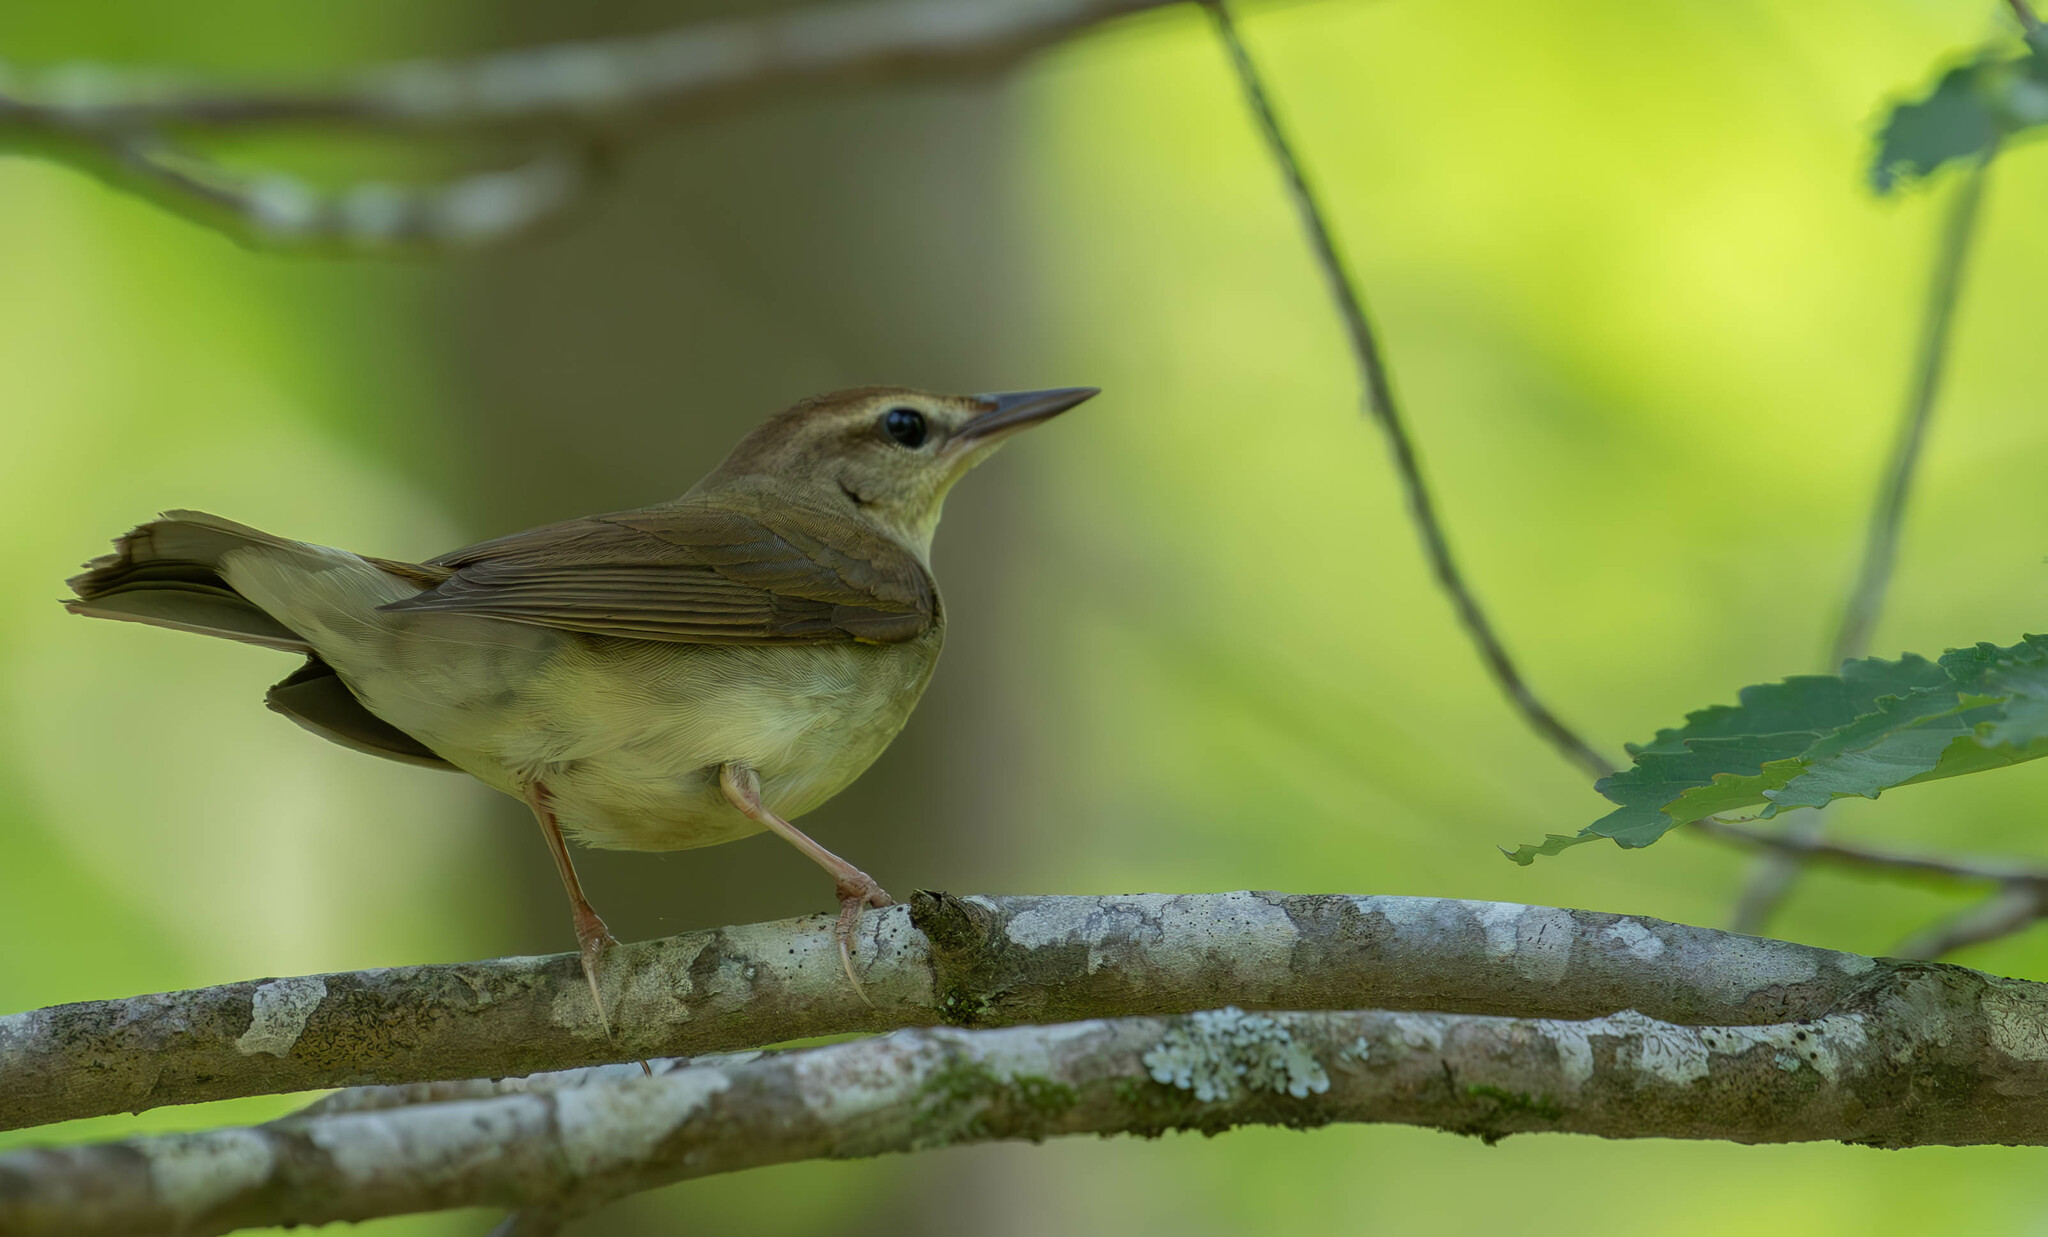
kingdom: Animalia
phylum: Chordata
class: Aves
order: Passeriformes
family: Parulidae
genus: Limnothlypis
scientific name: Limnothlypis swainsonii
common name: Swainson's warbler
